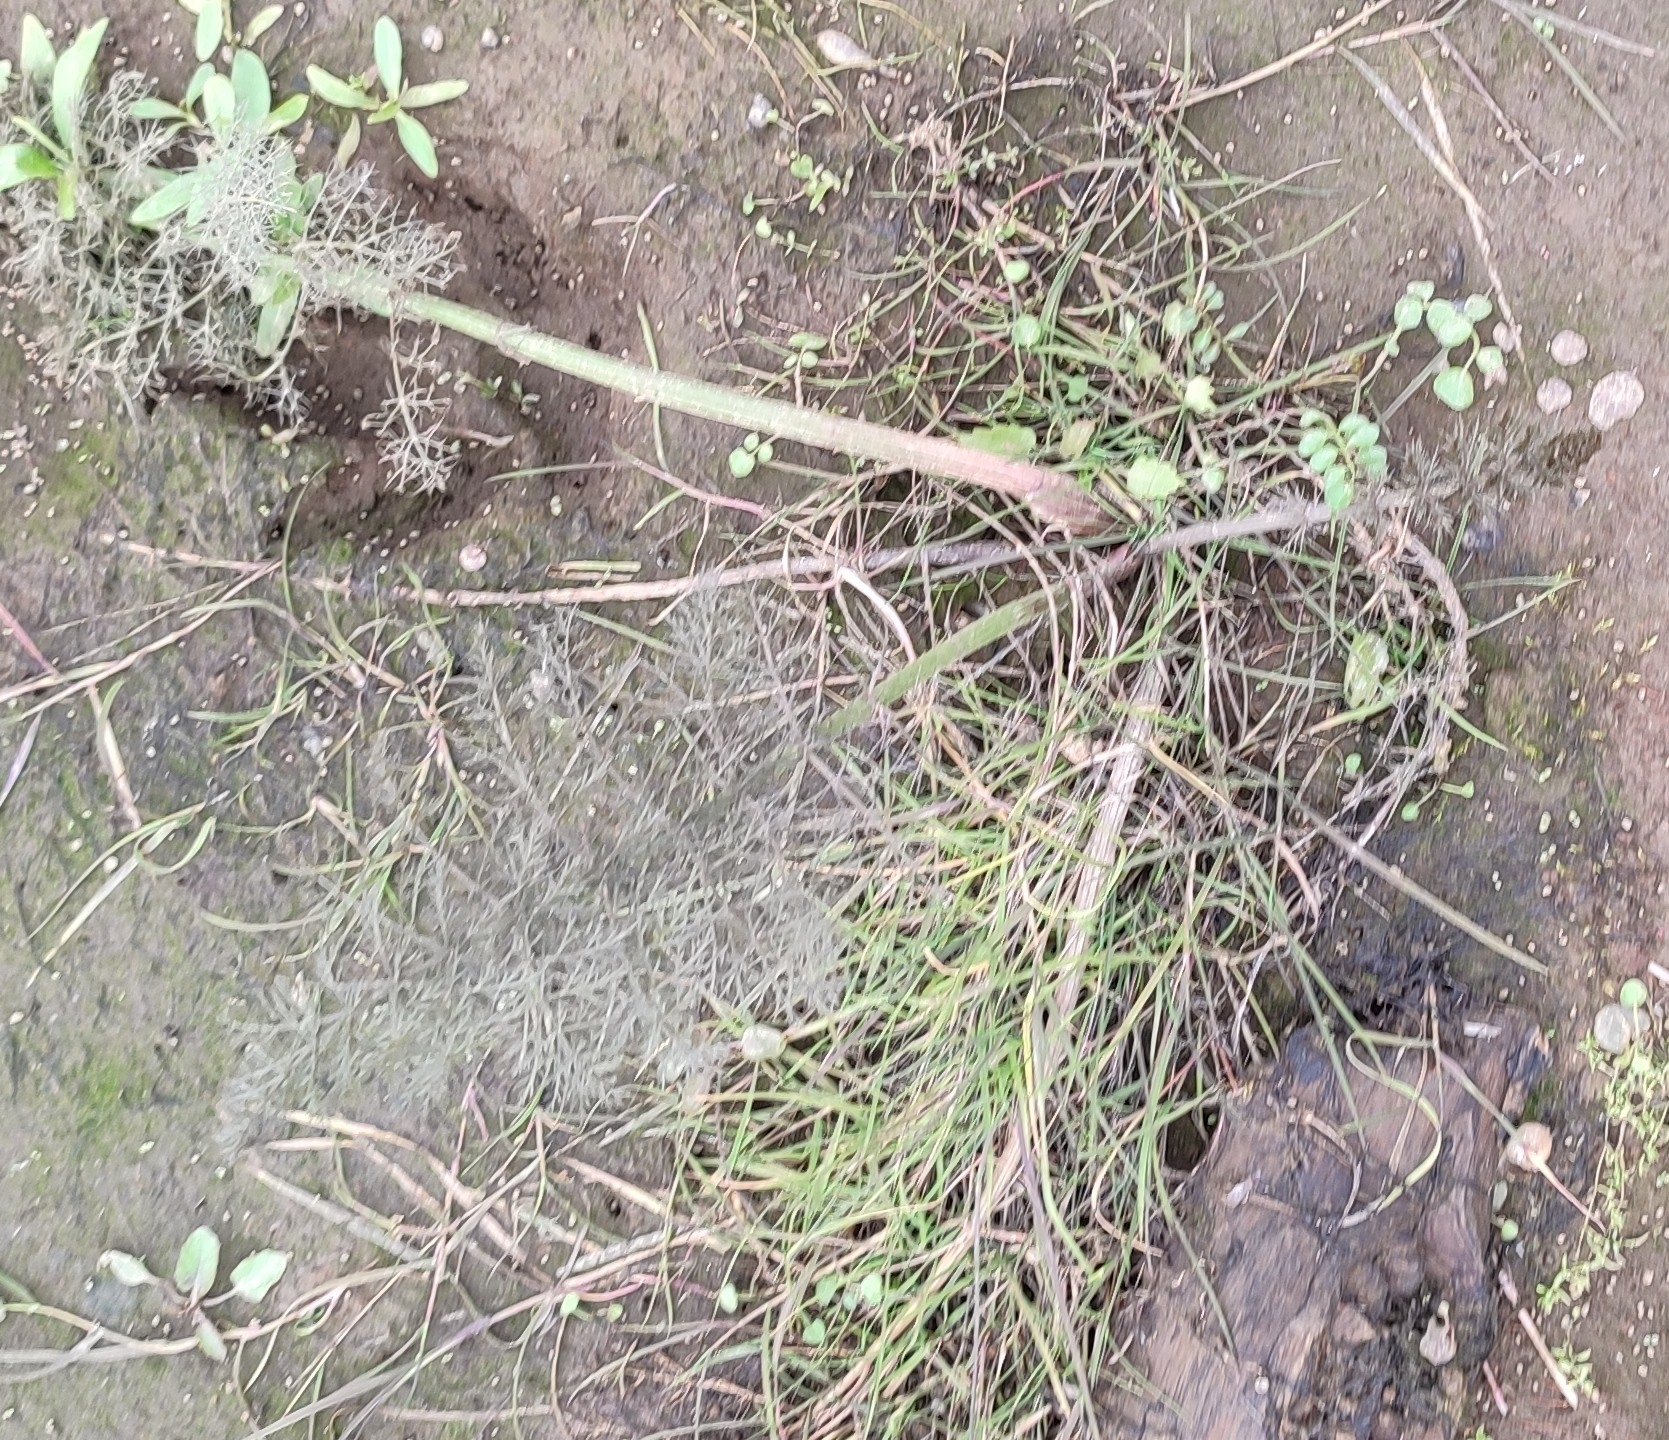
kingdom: Plantae
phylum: Tracheophyta
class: Magnoliopsida
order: Apiales
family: Apiaceae
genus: Sium
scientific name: Sium latifolium
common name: Greater water-parsnip
